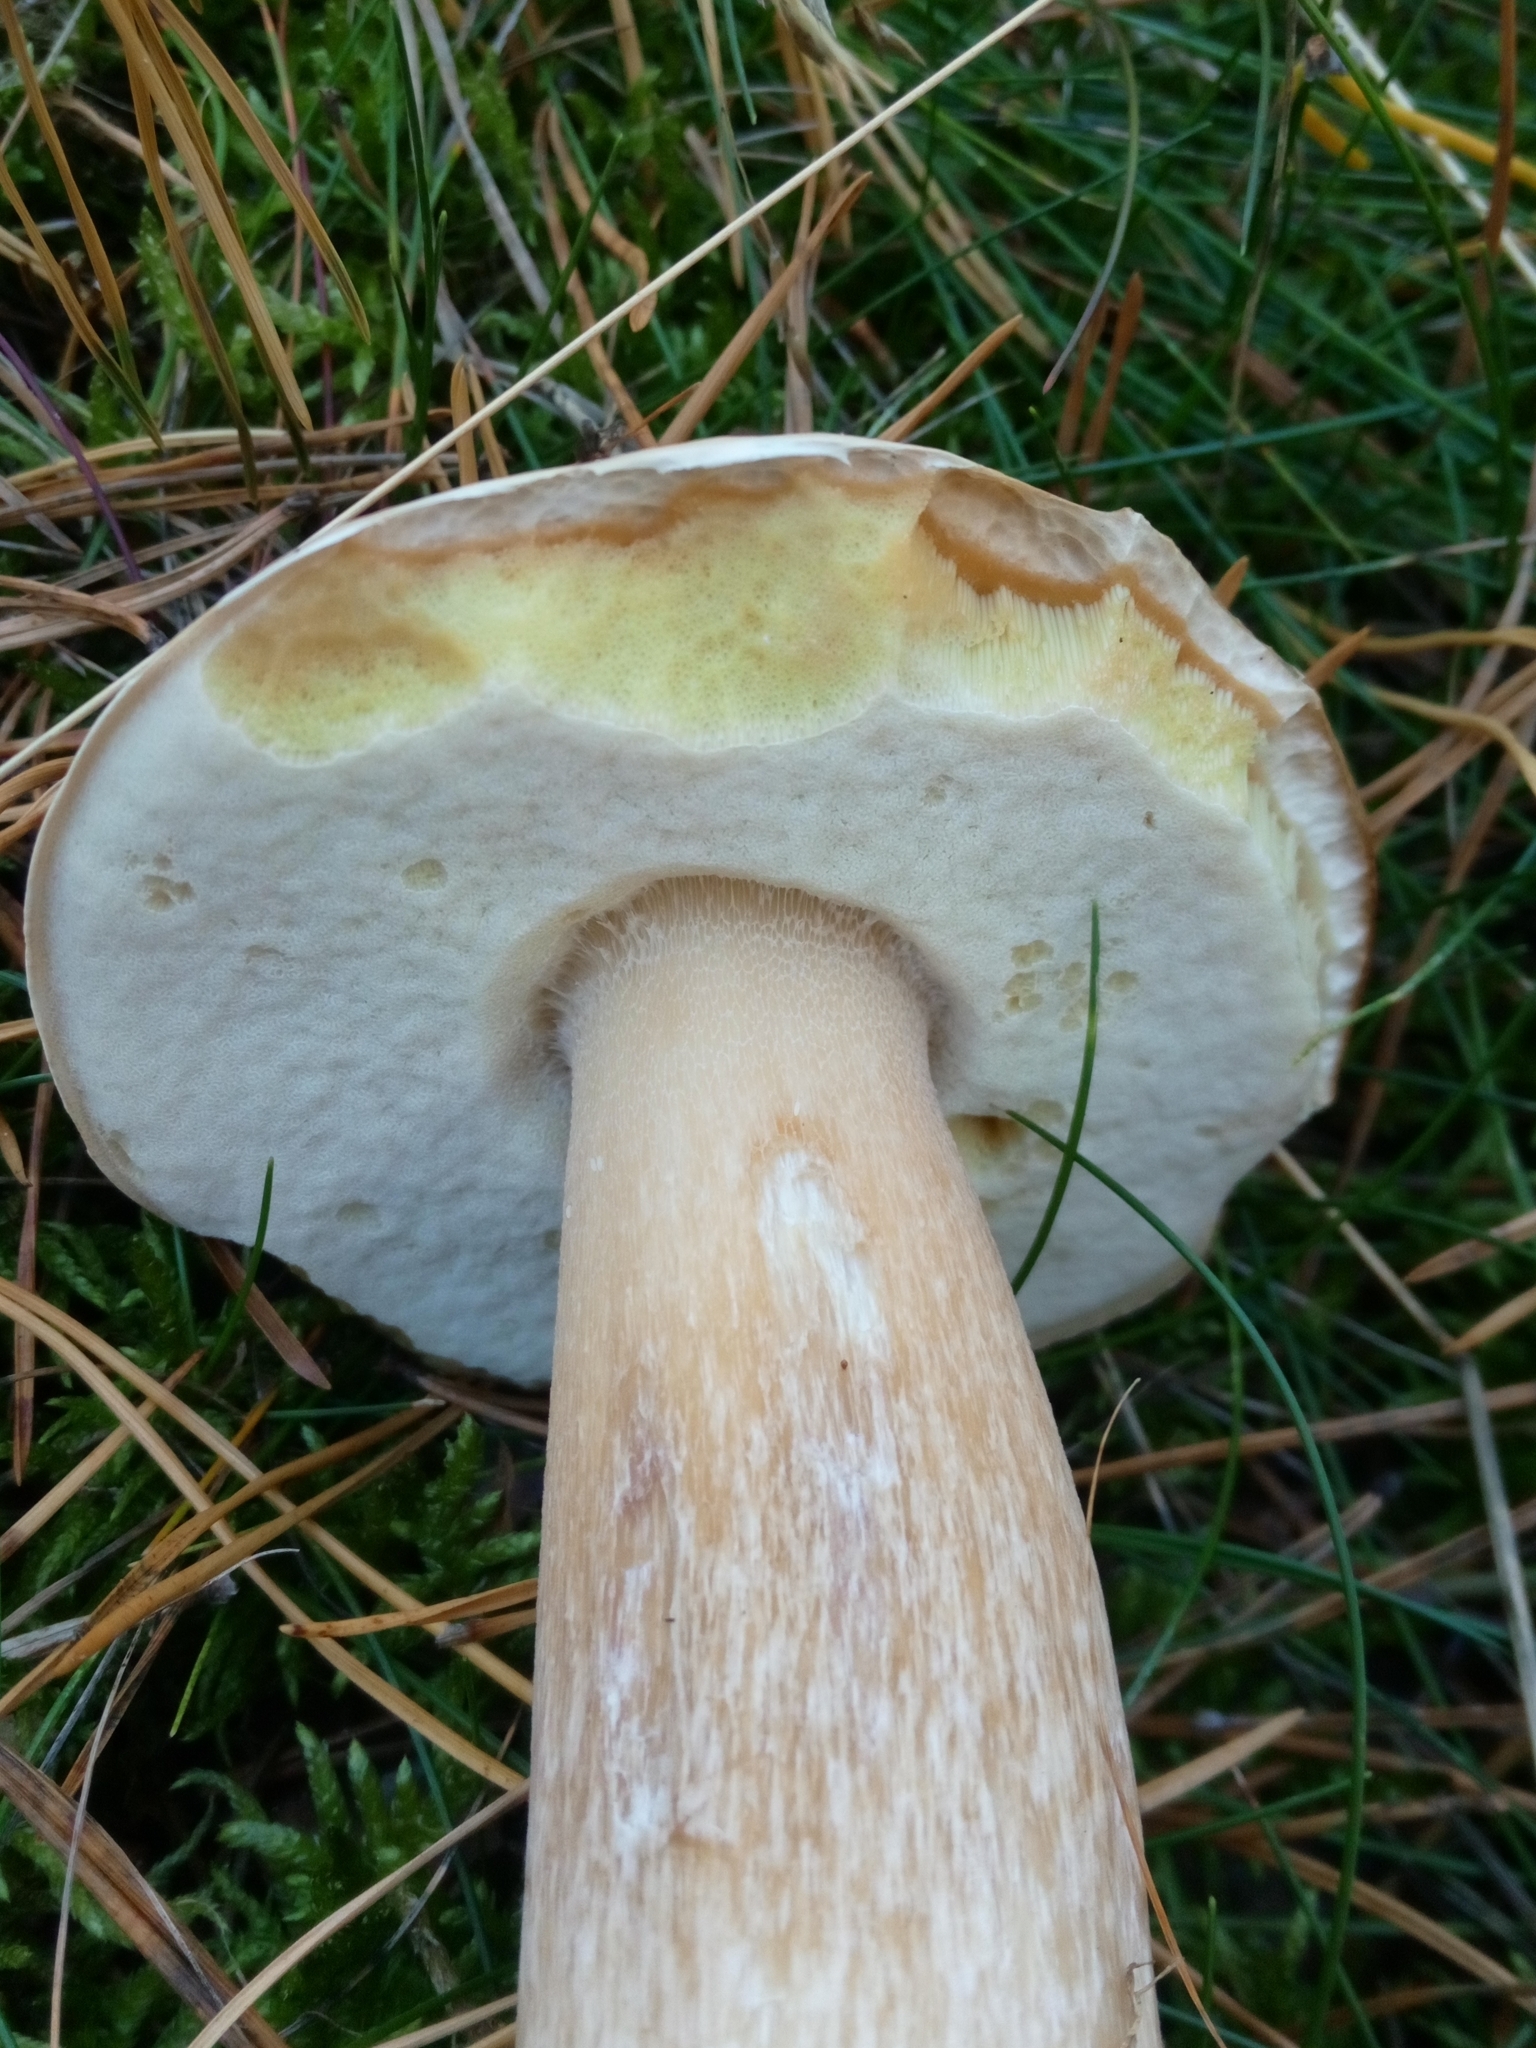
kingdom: Fungi
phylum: Basidiomycota
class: Agaricomycetes
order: Boletales
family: Boletaceae
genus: Boletus
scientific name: Boletus edulis
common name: Cep
